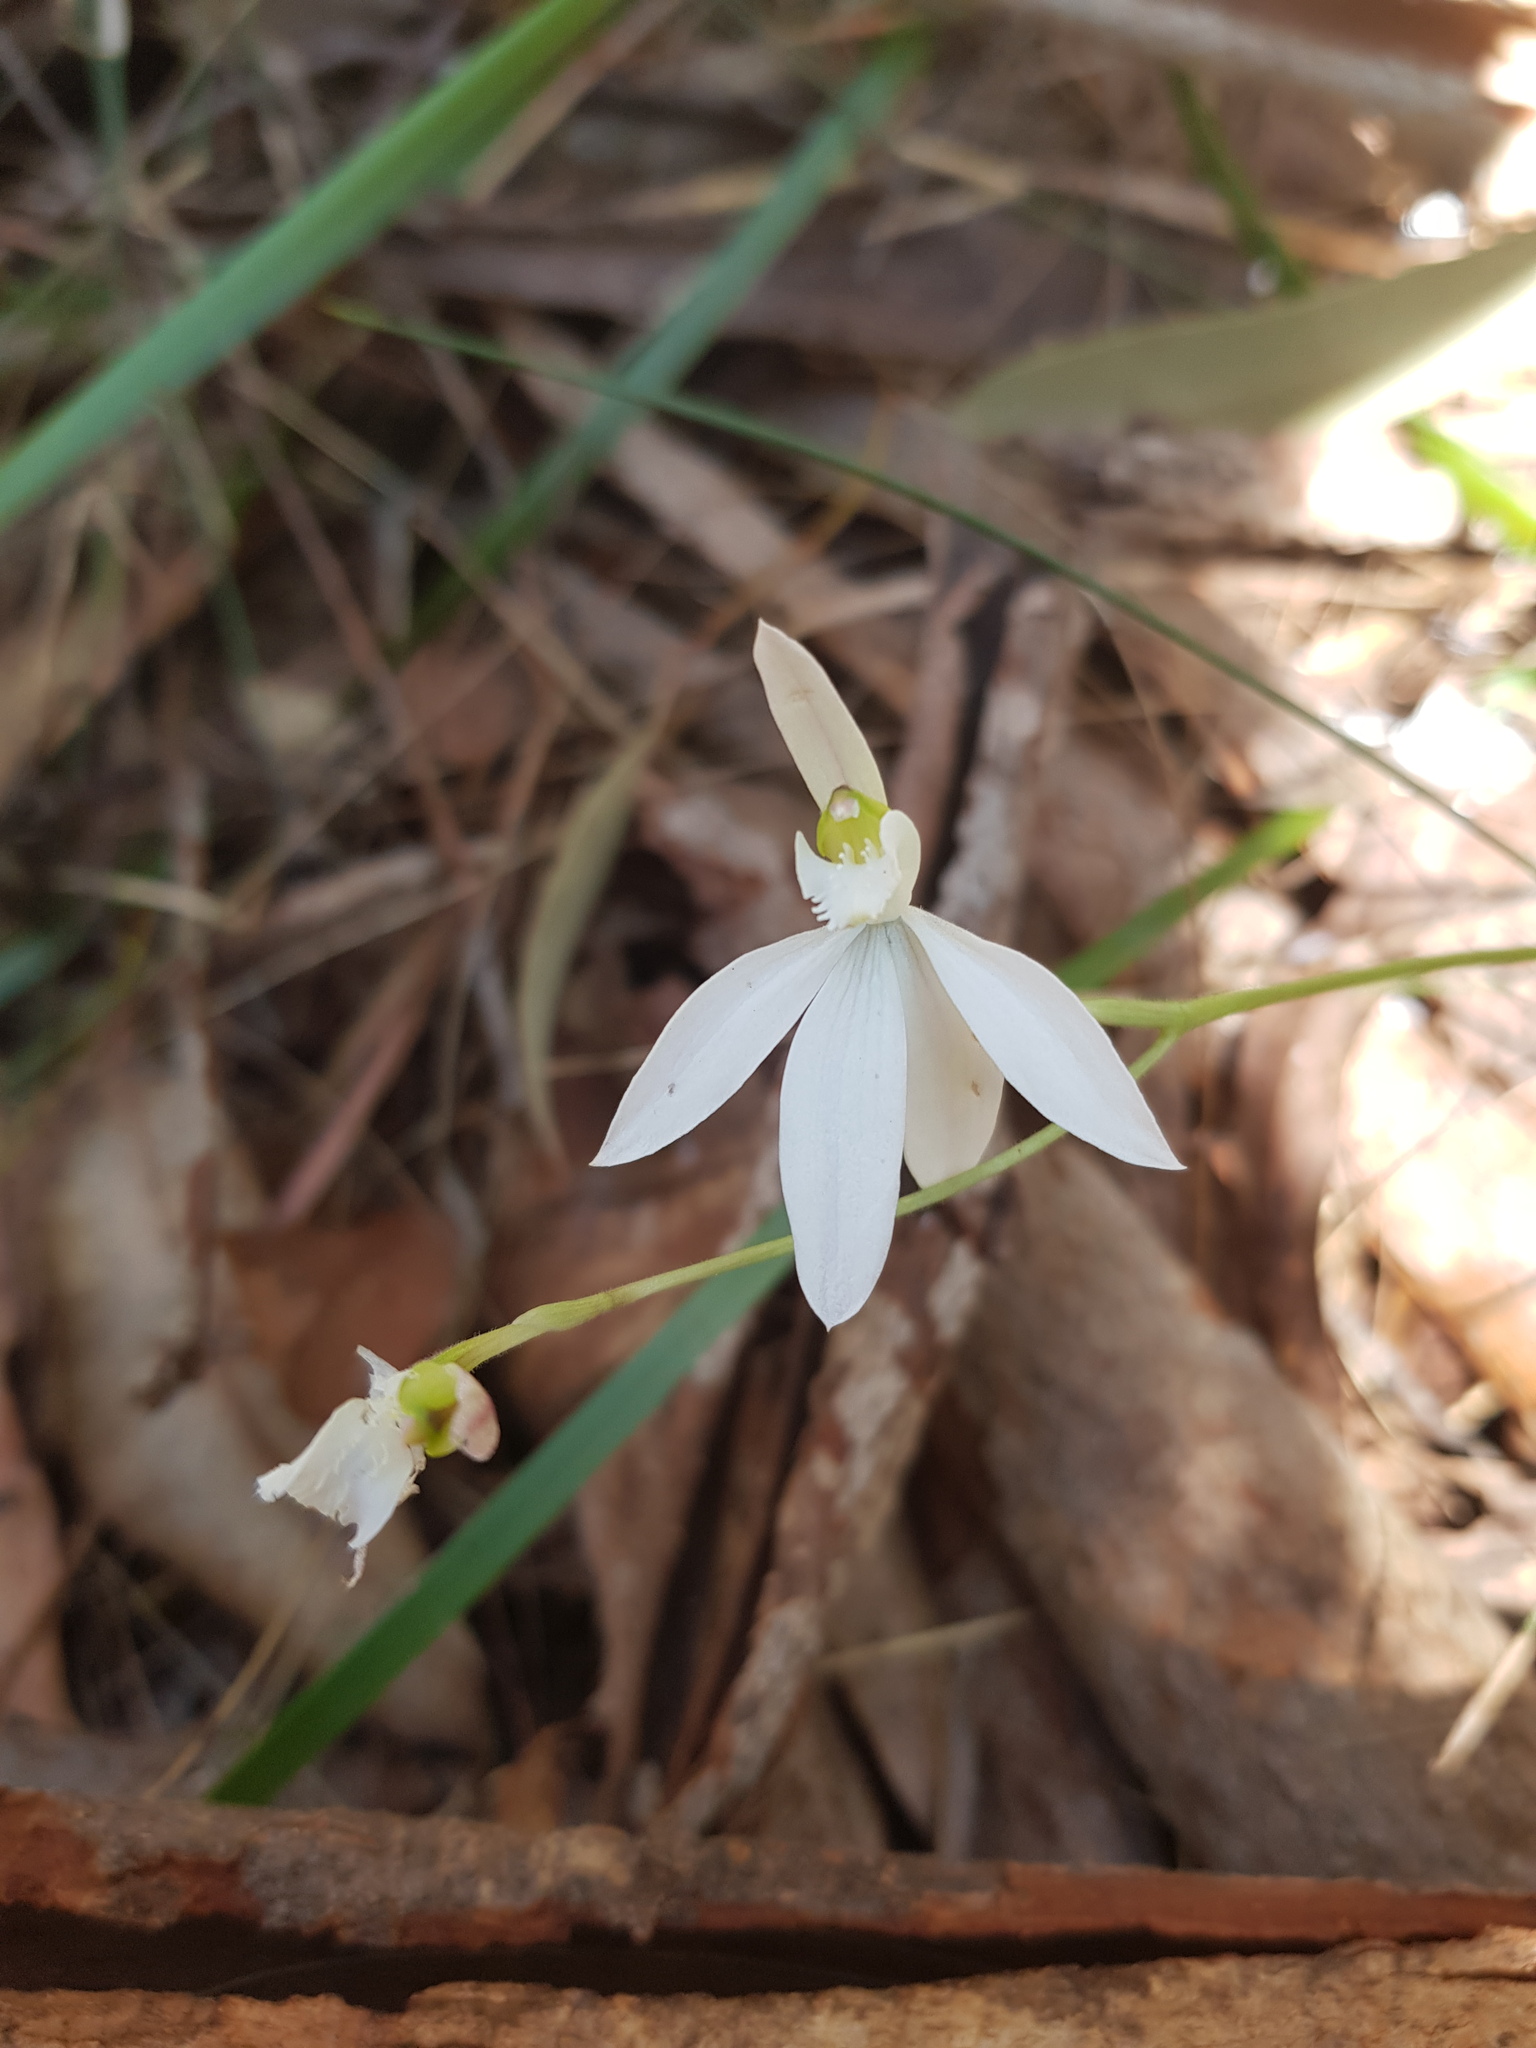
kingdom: Plantae
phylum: Tracheophyta
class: Liliopsida
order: Asparagales
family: Orchidaceae
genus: Caladenia
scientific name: Caladenia catenata
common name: White caladenia
